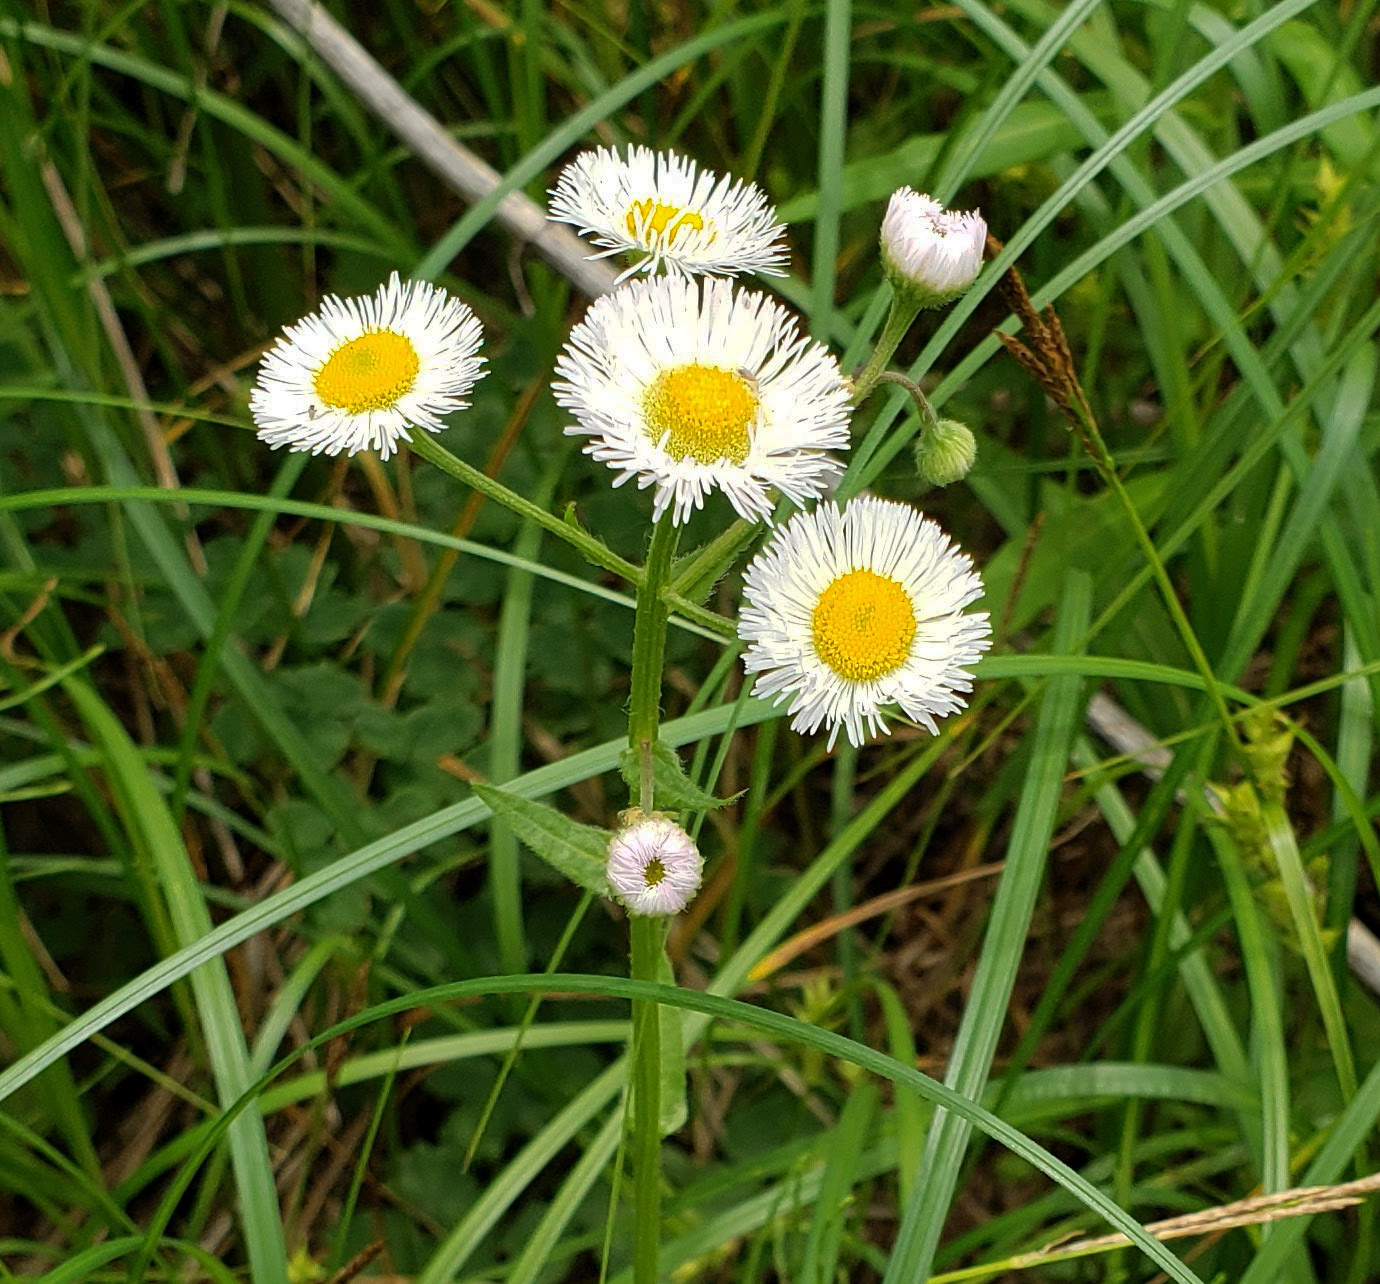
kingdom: Plantae
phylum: Tracheophyta
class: Magnoliopsida
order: Asterales
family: Asteraceae
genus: Erigeron
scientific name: Erigeron philadelphicus
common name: Robin's-plantain
